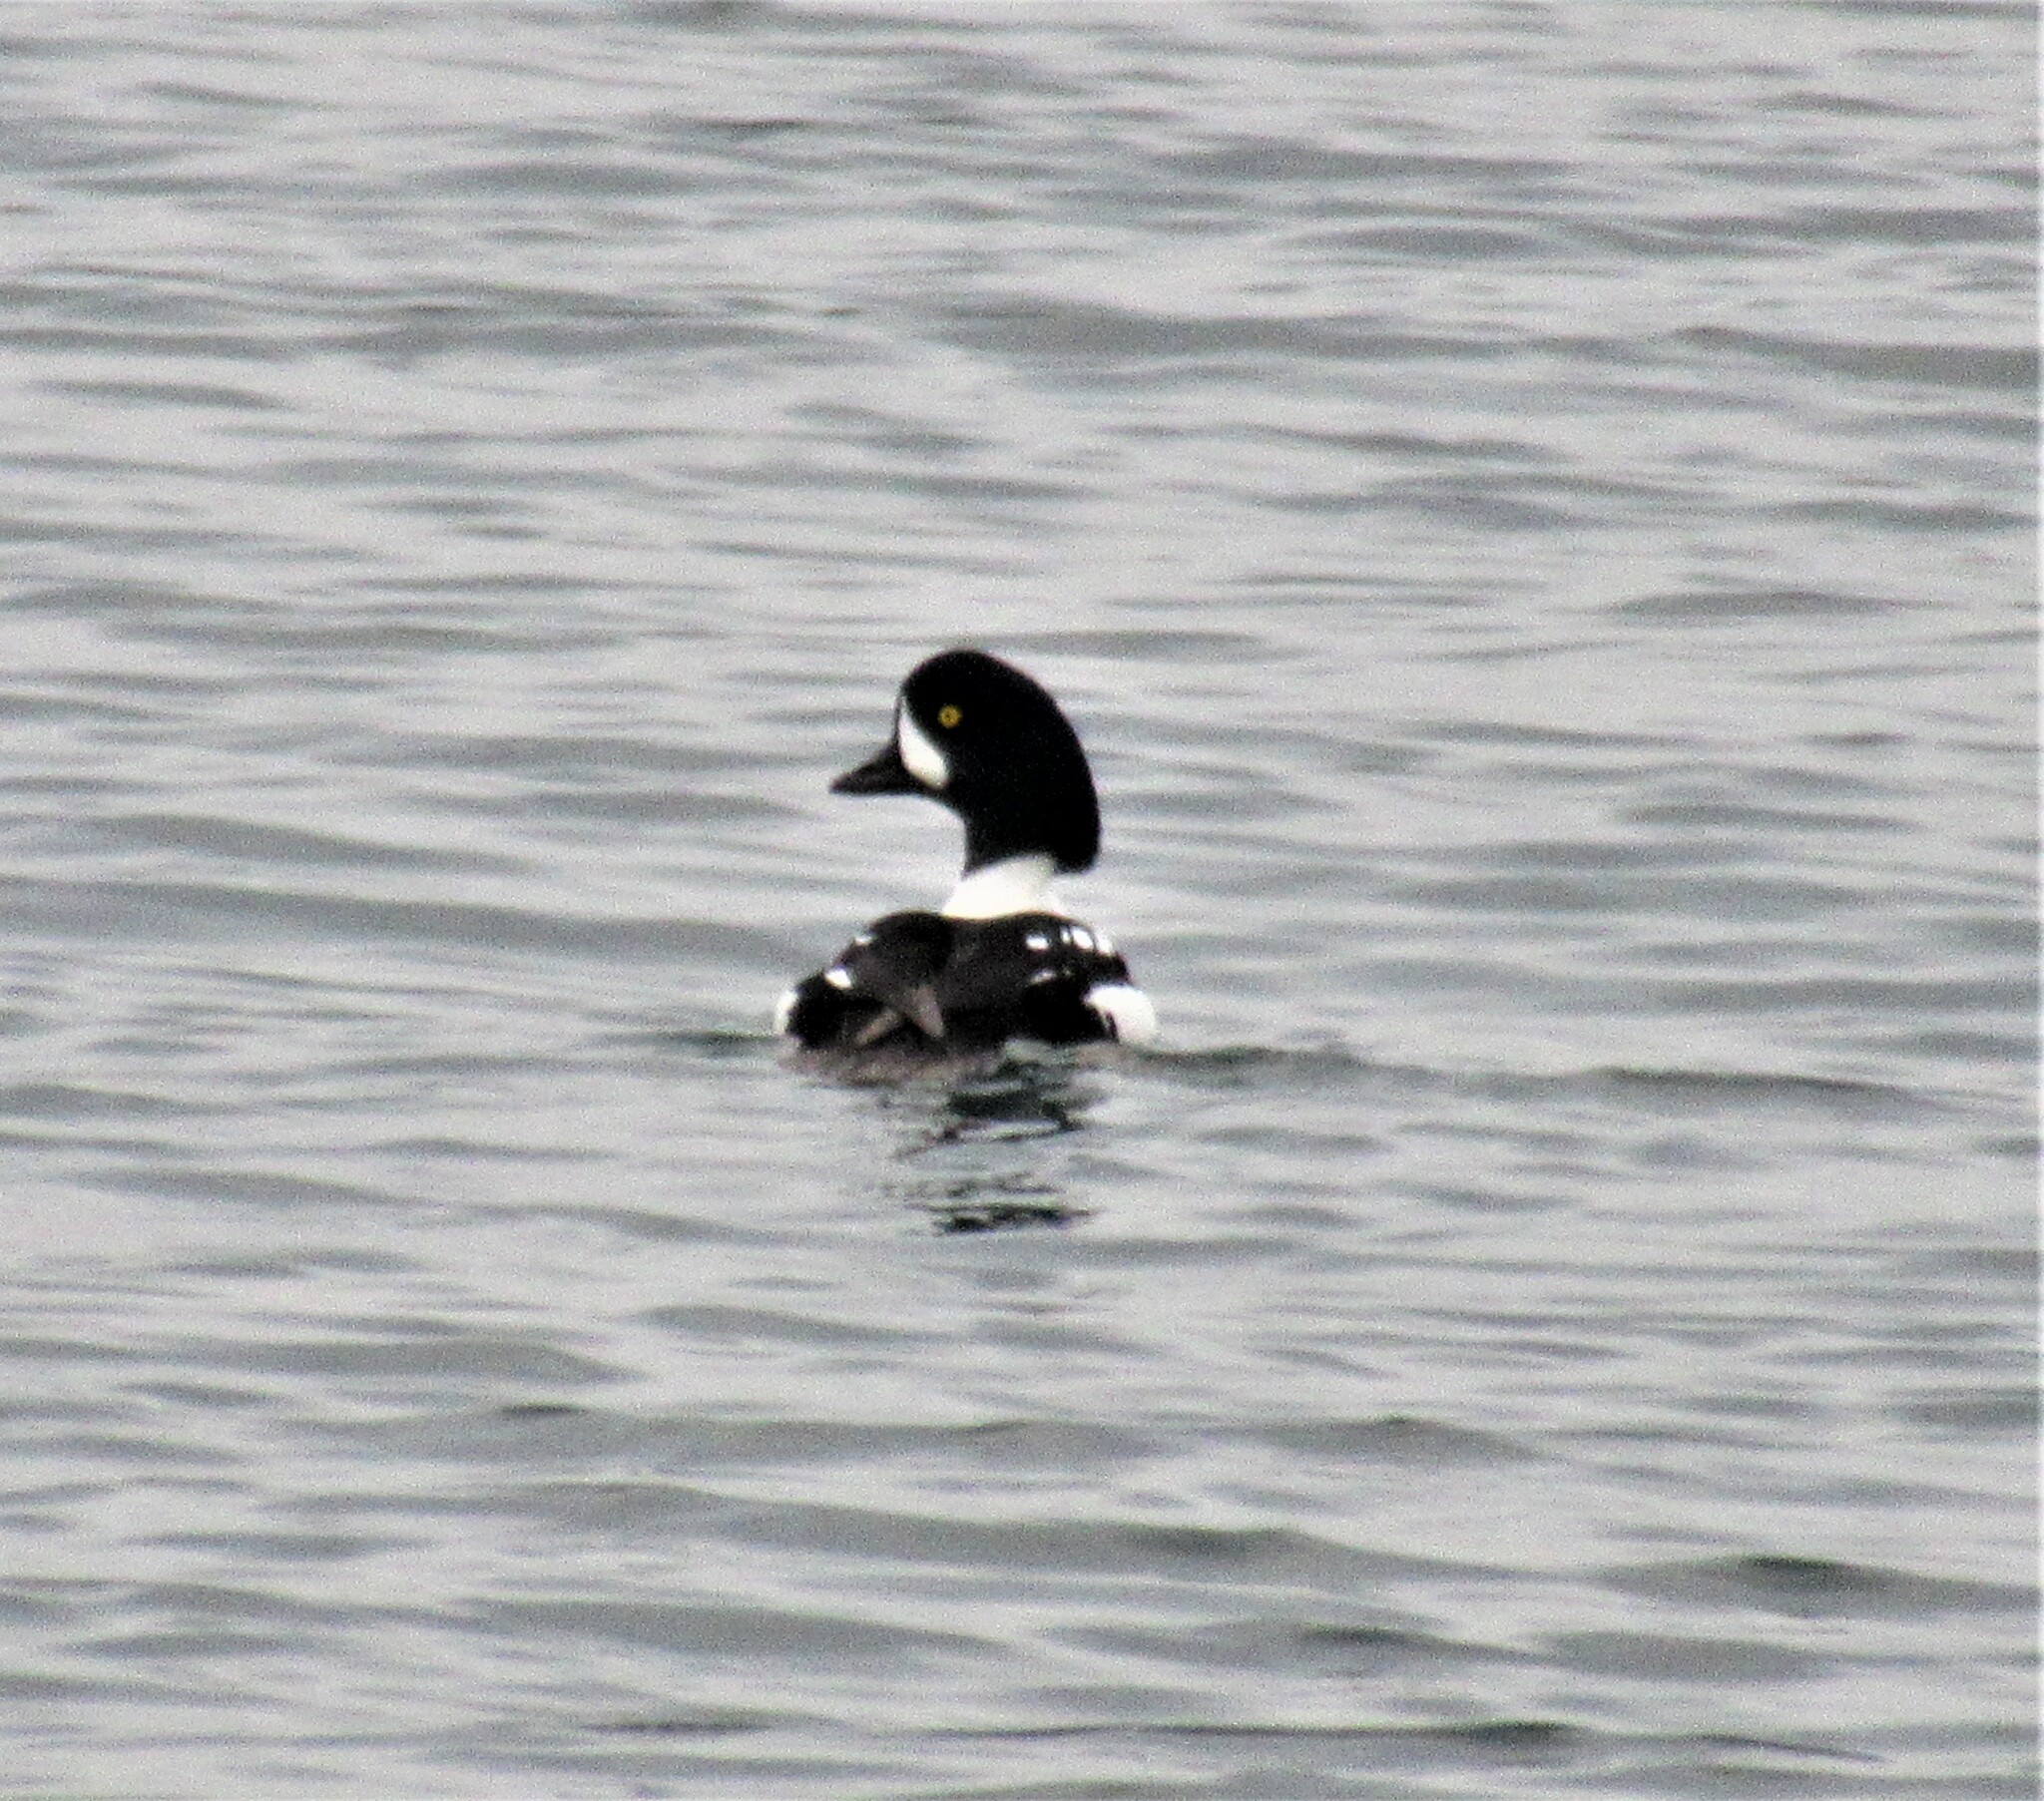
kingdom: Animalia
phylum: Chordata
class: Aves
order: Anseriformes
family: Anatidae
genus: Bucephala
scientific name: Bucephala islandica
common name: Barrow's goldeneye
